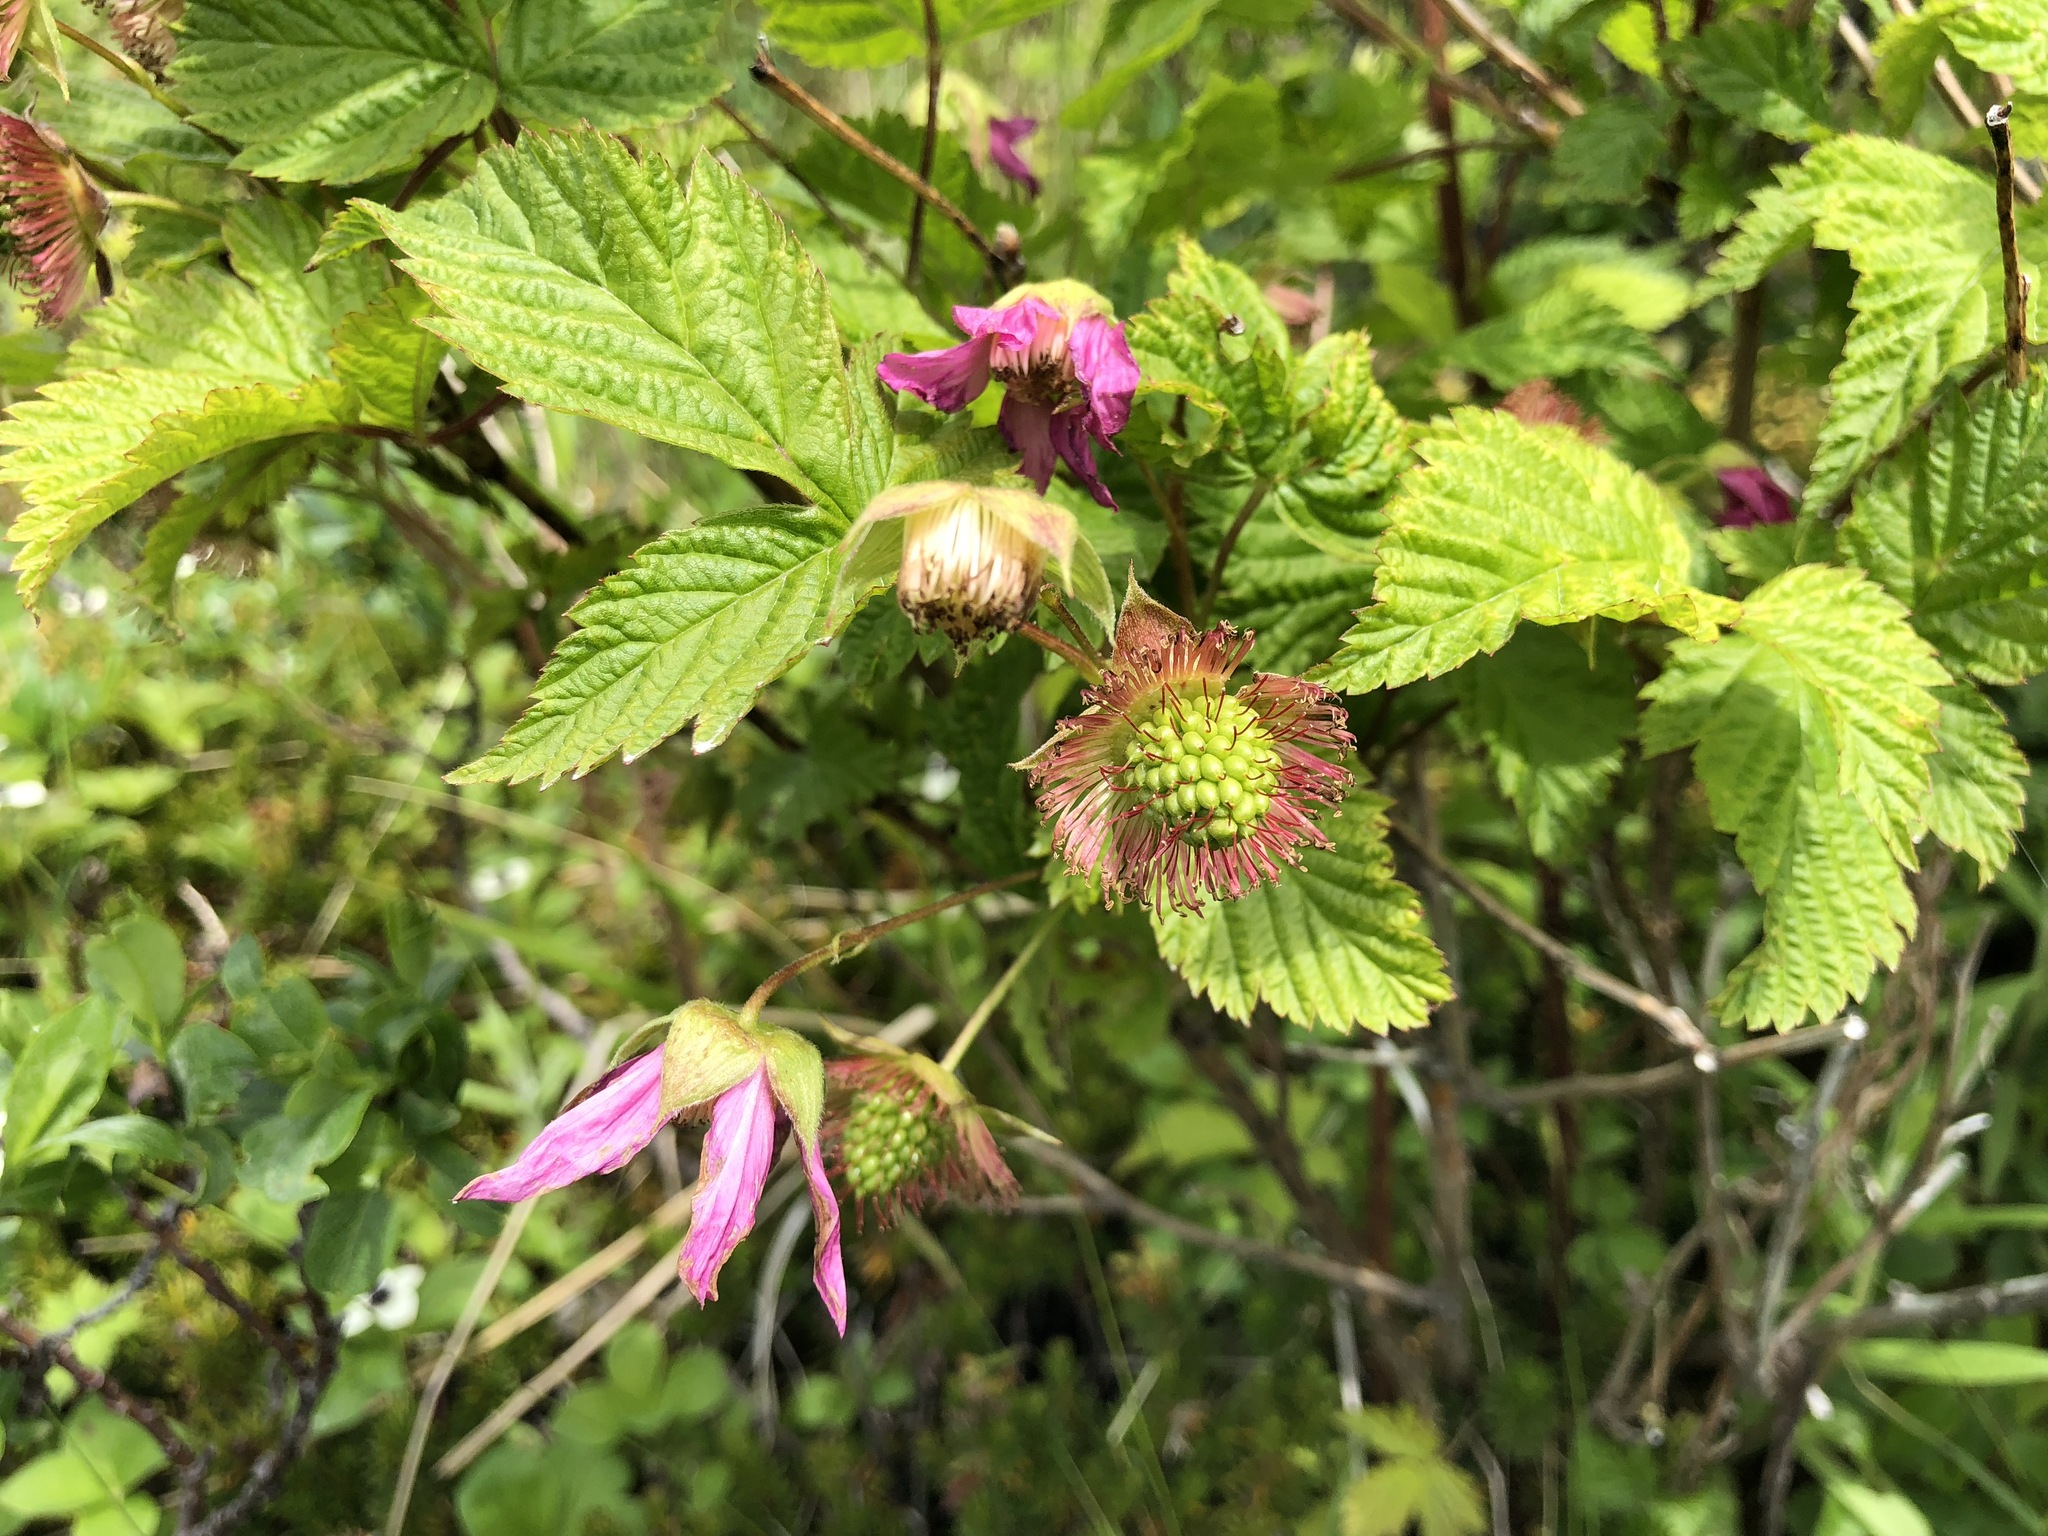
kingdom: Plantae
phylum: Tracheophyta
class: Magnoliopsida
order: Rosales
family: Rosaceae
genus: Rubus
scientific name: Rubus spectabilis
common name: Salmonberry
